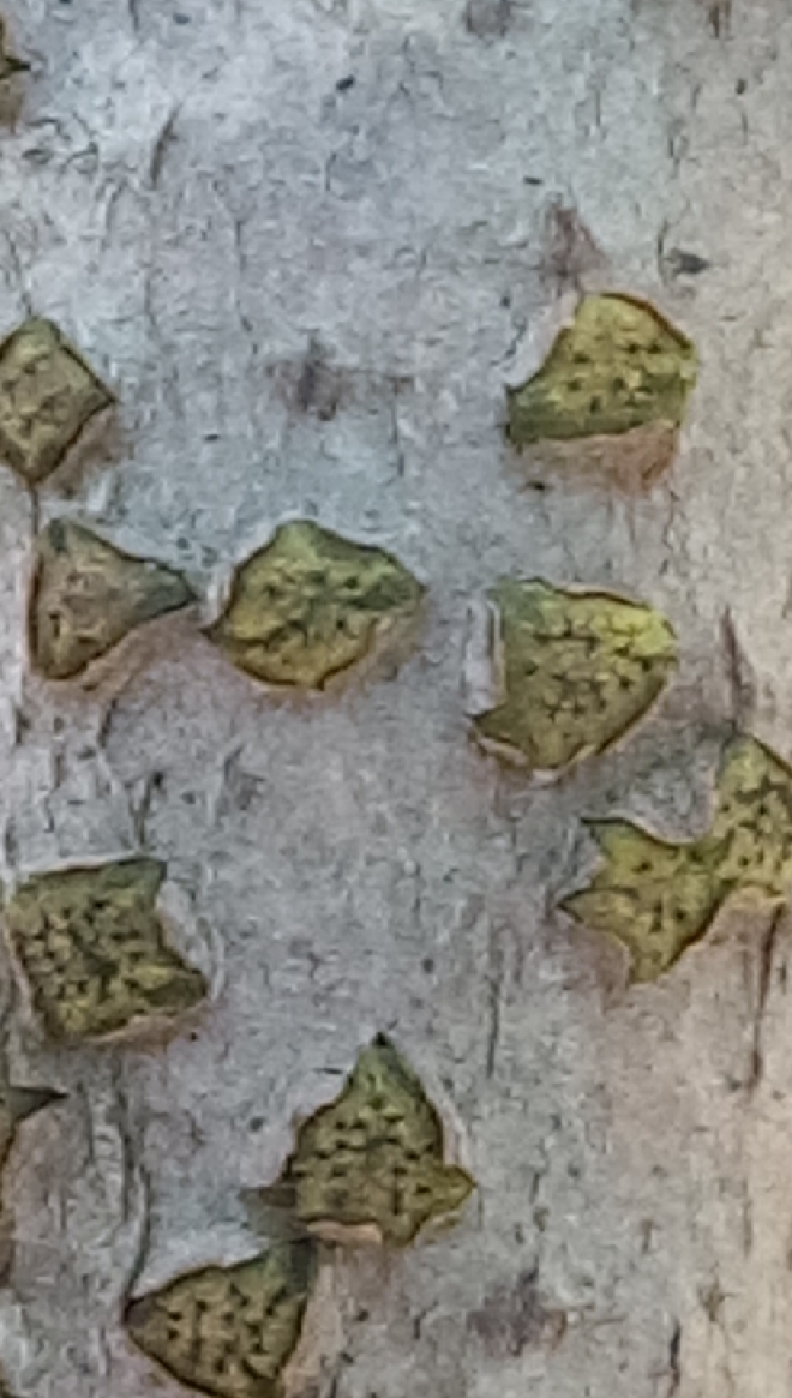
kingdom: Fungi
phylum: Ascomycota
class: Sordariomycetes
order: Xylariales
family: Diatrypaceae
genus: Diatrype
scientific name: Diatrype virescens
